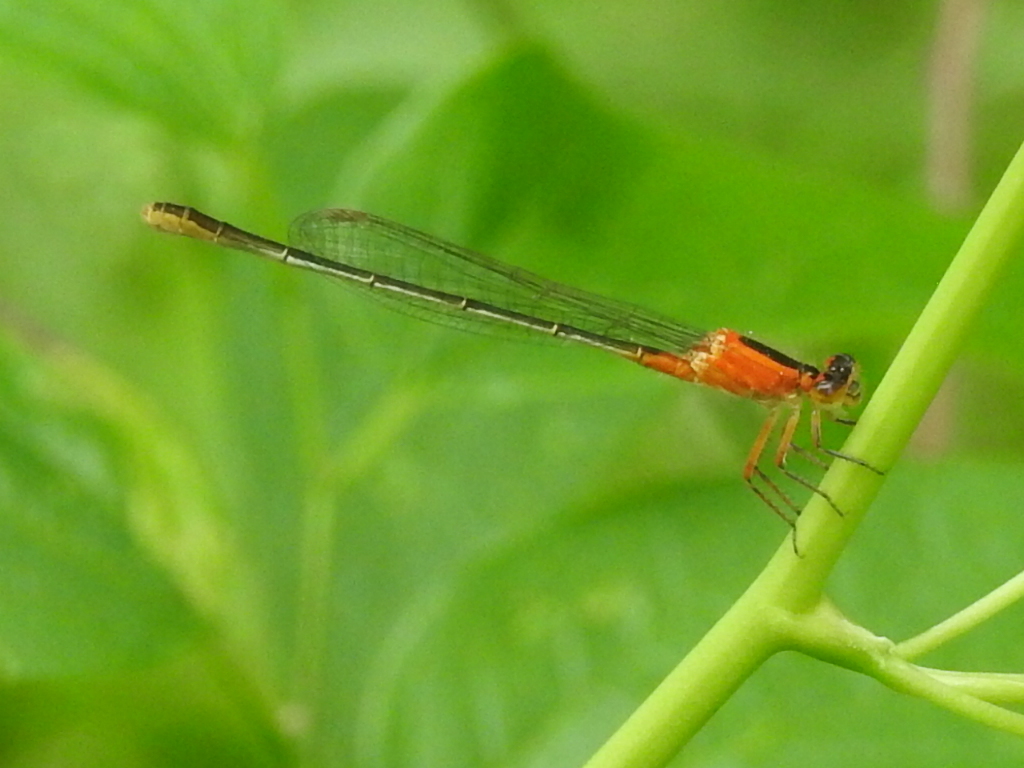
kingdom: Animalia
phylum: Arthropoda
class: Insecta
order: Odonata
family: Coenagrionidae
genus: Ischnura
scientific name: Ischnura ramburii
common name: Rambur's forktail
